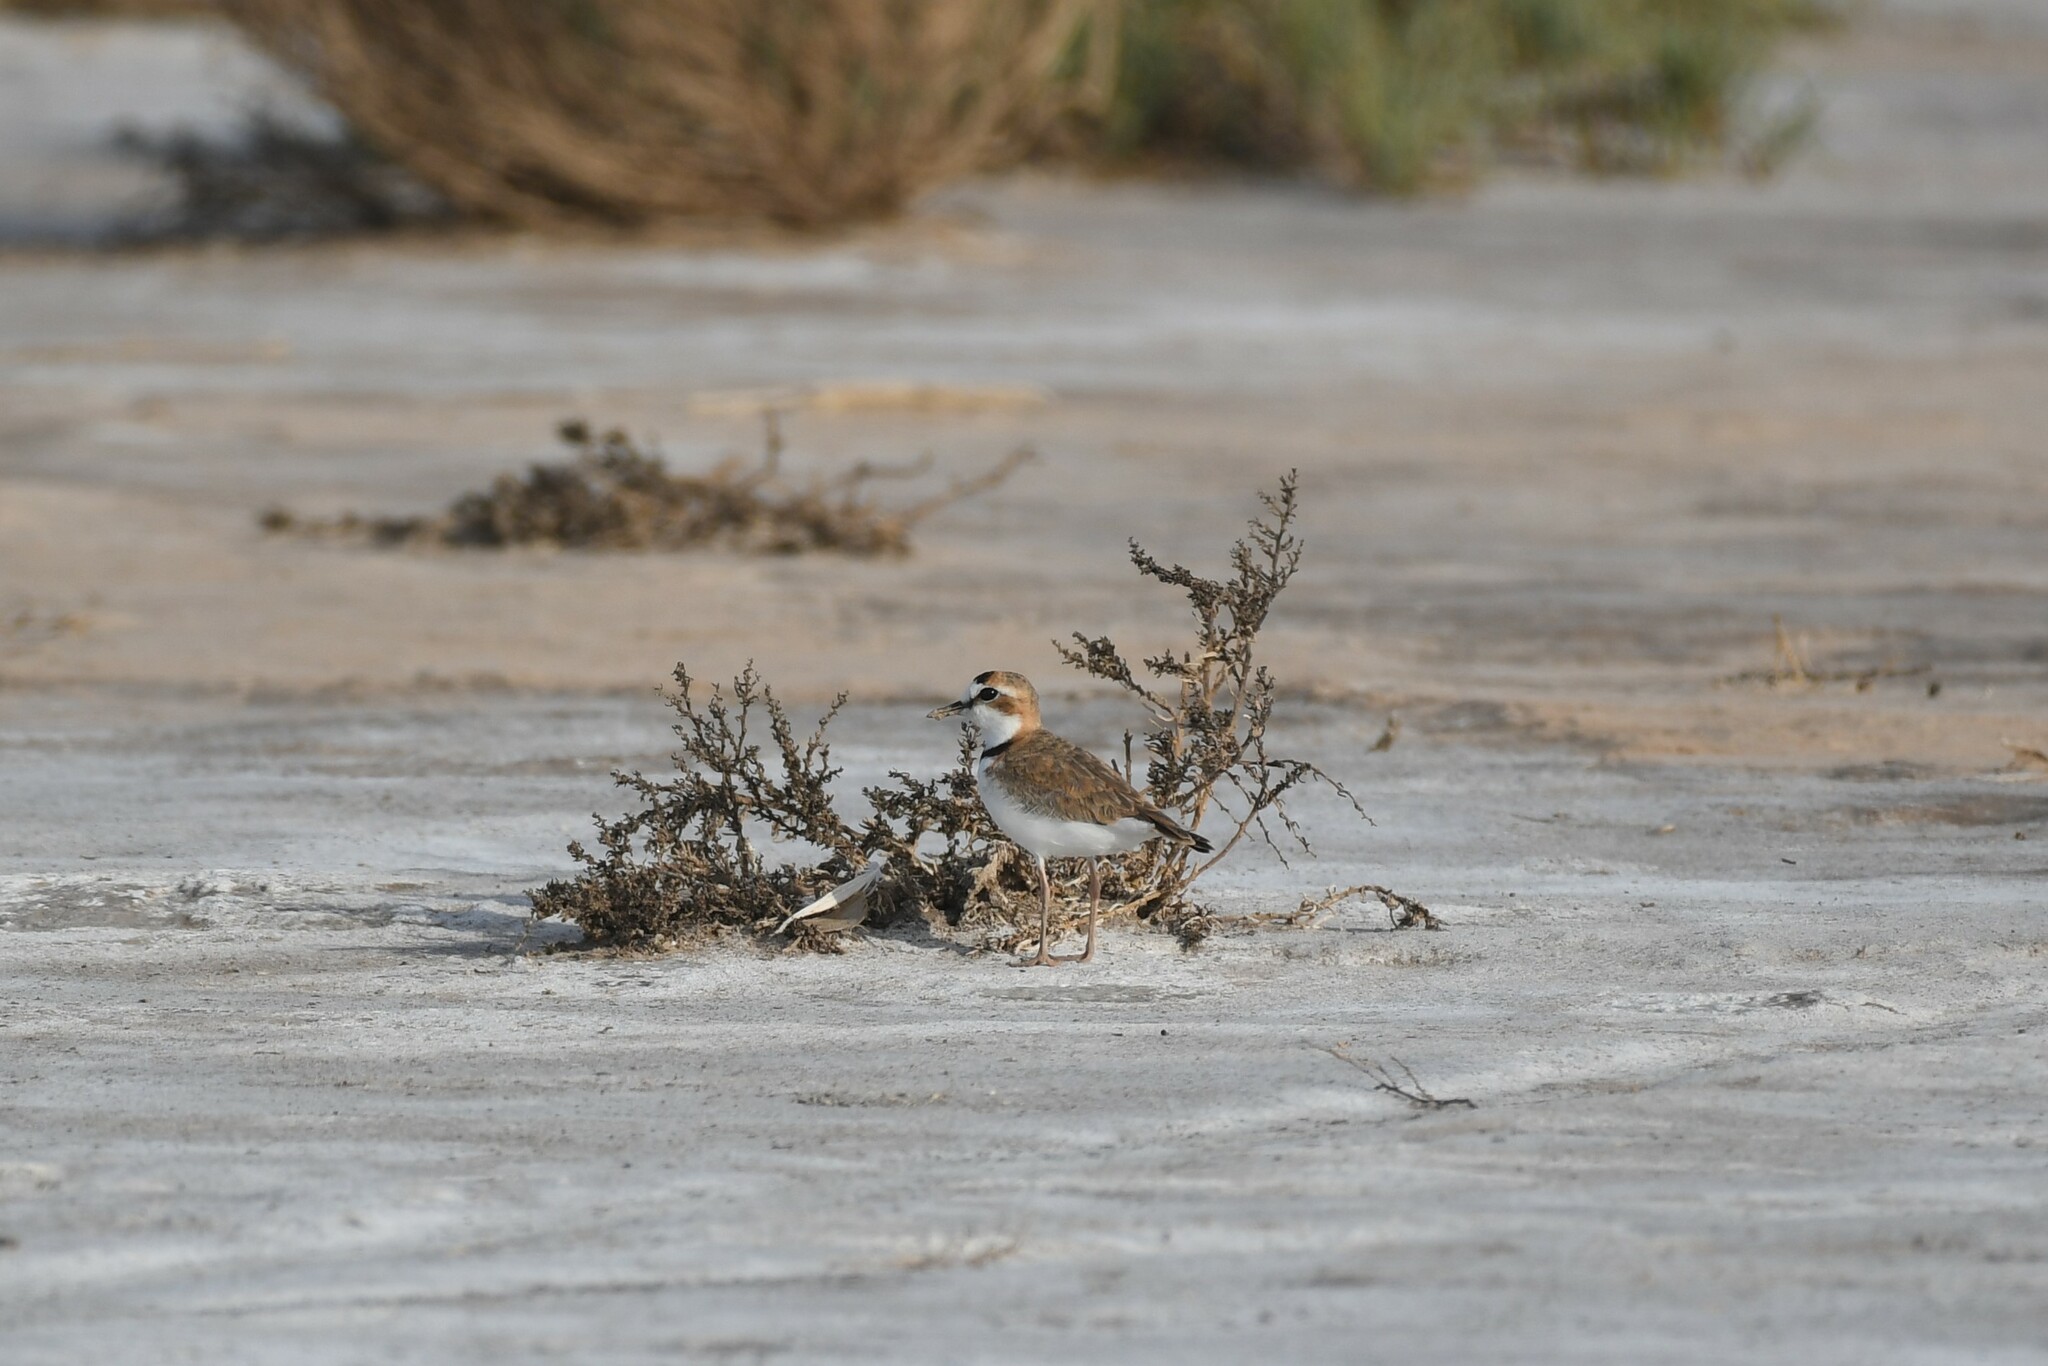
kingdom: Animalia
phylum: Chordata
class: Aves
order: Charadriiformes
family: Charadriidae
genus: Anarhynchus
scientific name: Anarhynchus
